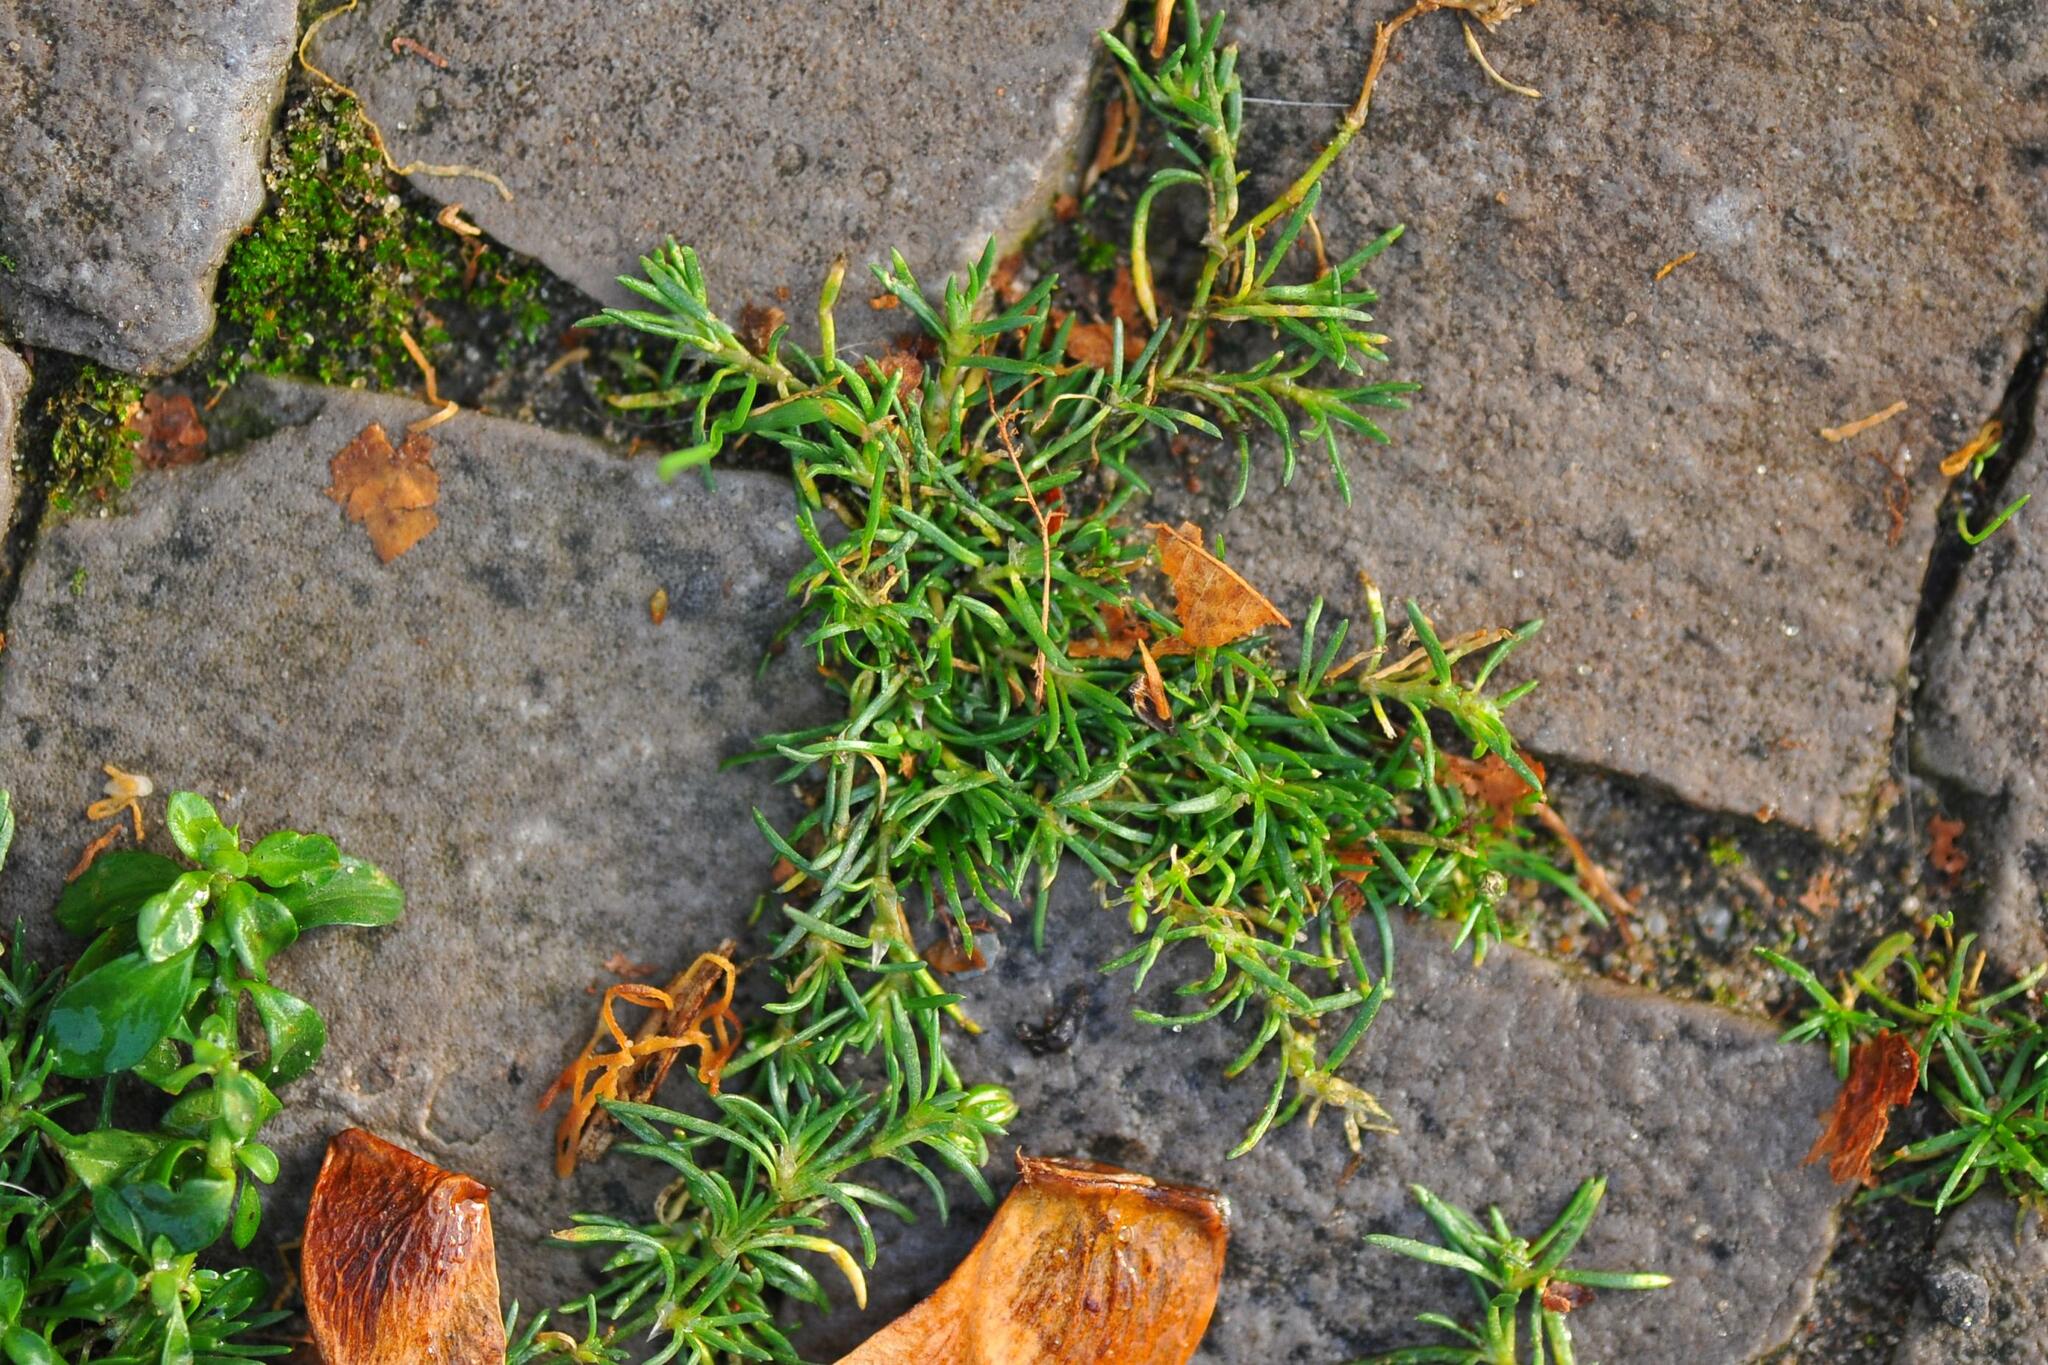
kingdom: Plantae
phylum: Tracheophyta
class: Magnoliopsida
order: Caryophyllales
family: Caryophyllaceae
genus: Sagina
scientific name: Sagina procumbens
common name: Procumbent pearlwort
